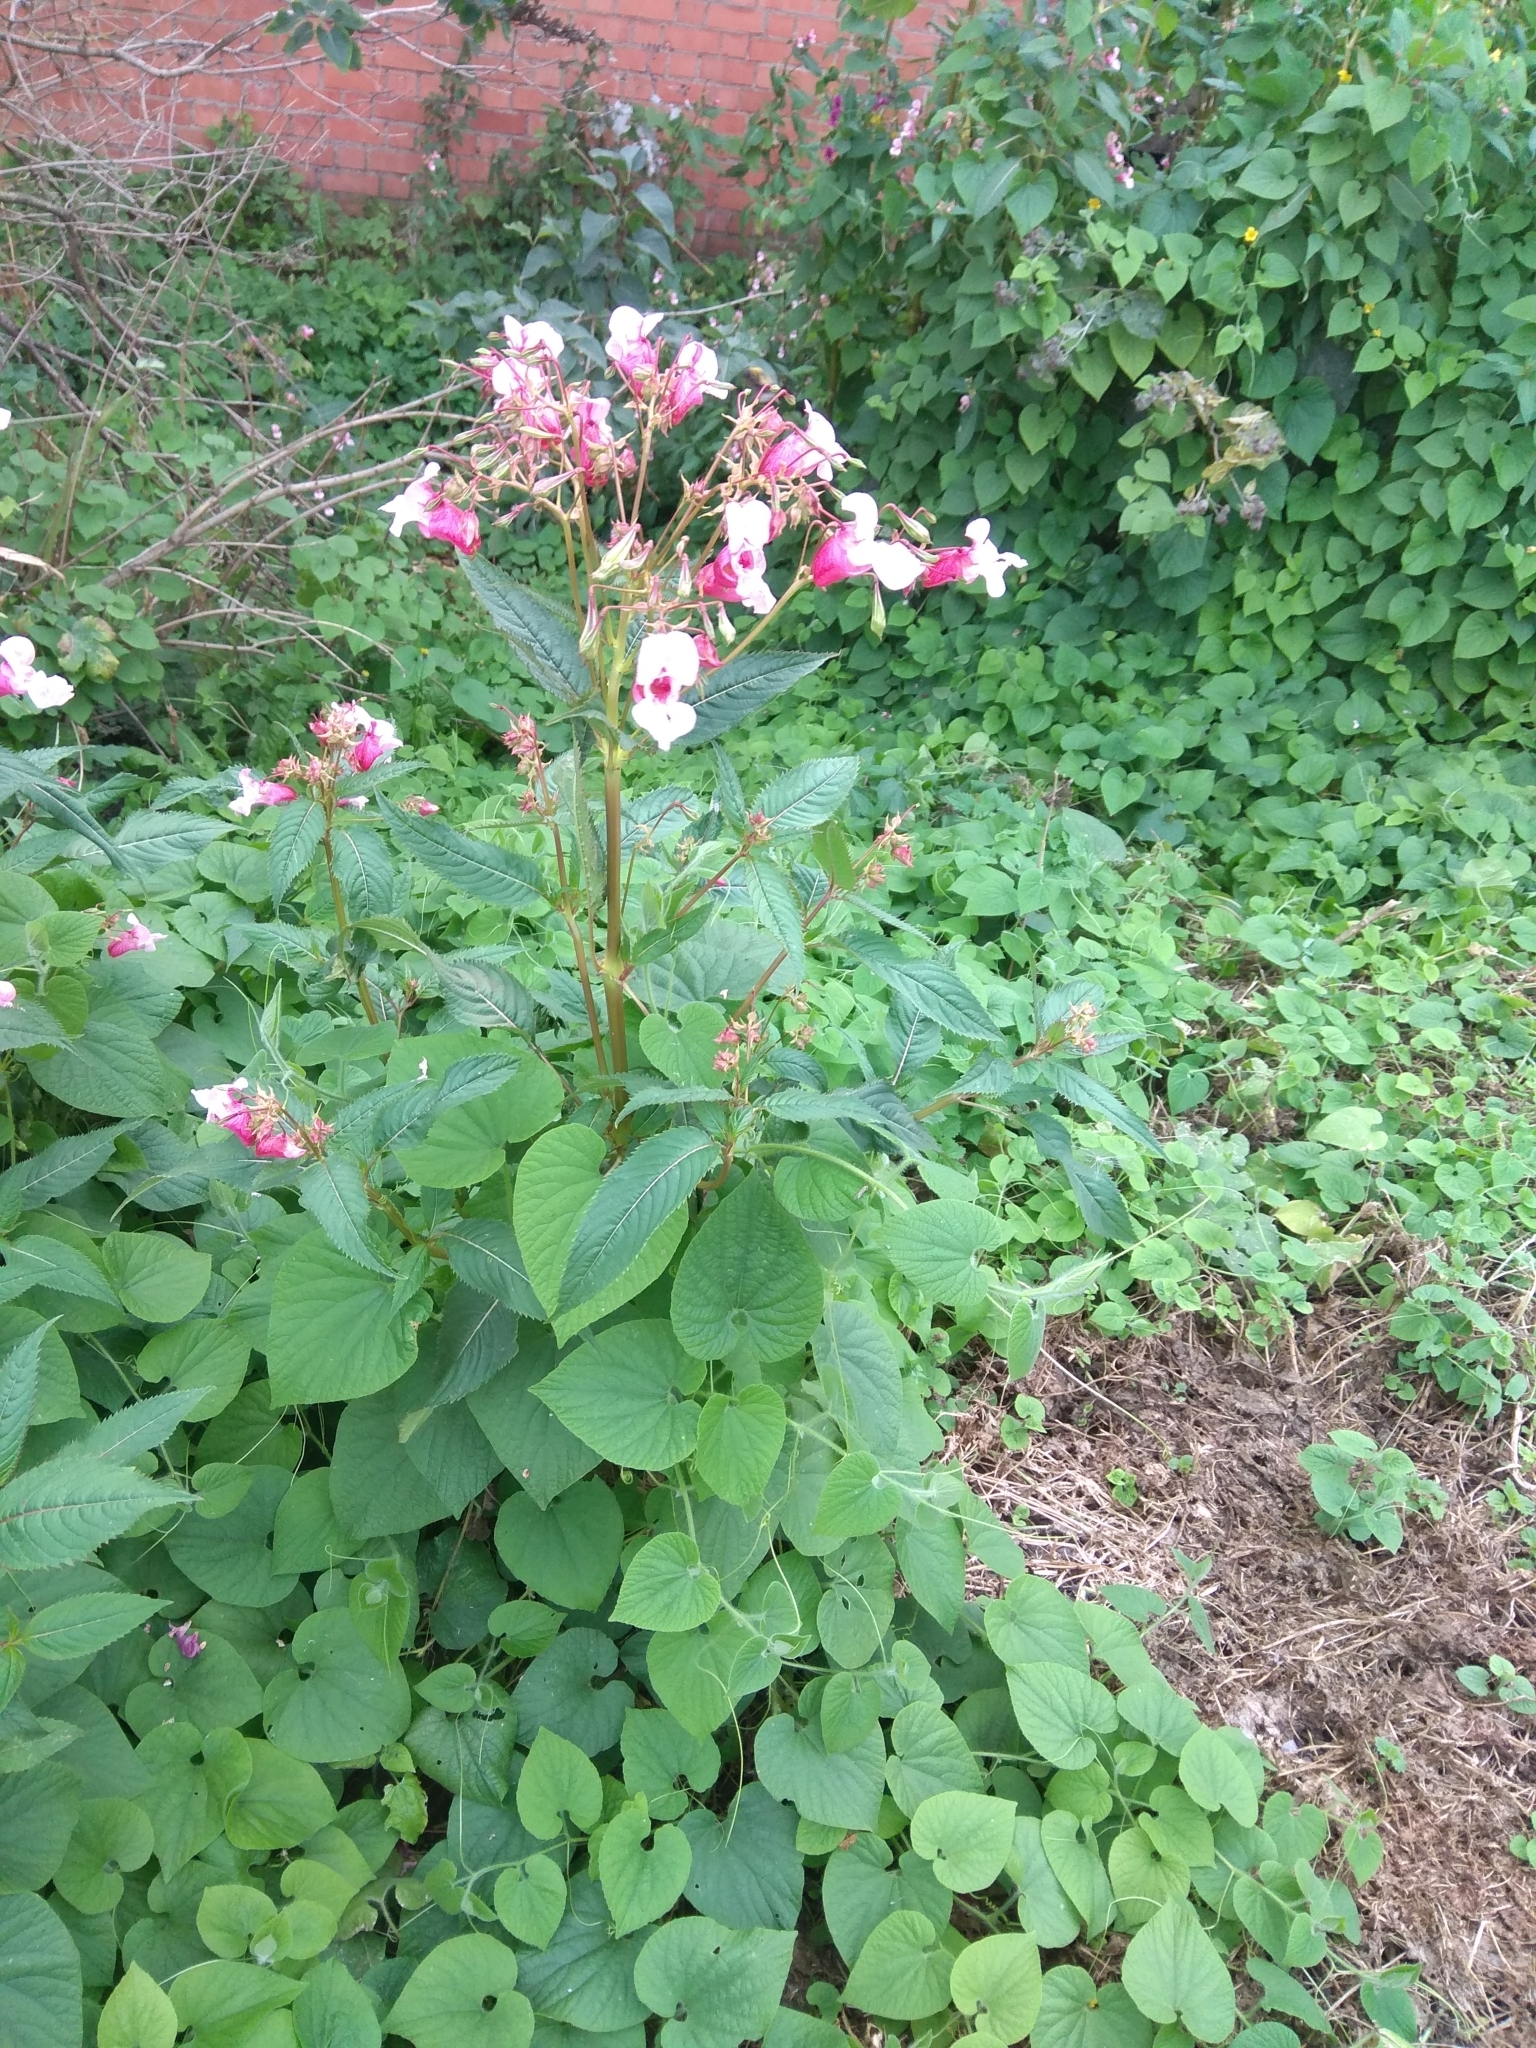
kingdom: Plantae
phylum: Tracheophyta
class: Magnoliopsida
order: Ericales
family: Balsaminaceae
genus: Impatiens
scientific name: Impatiens glandulifera
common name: Himalayan balsam
